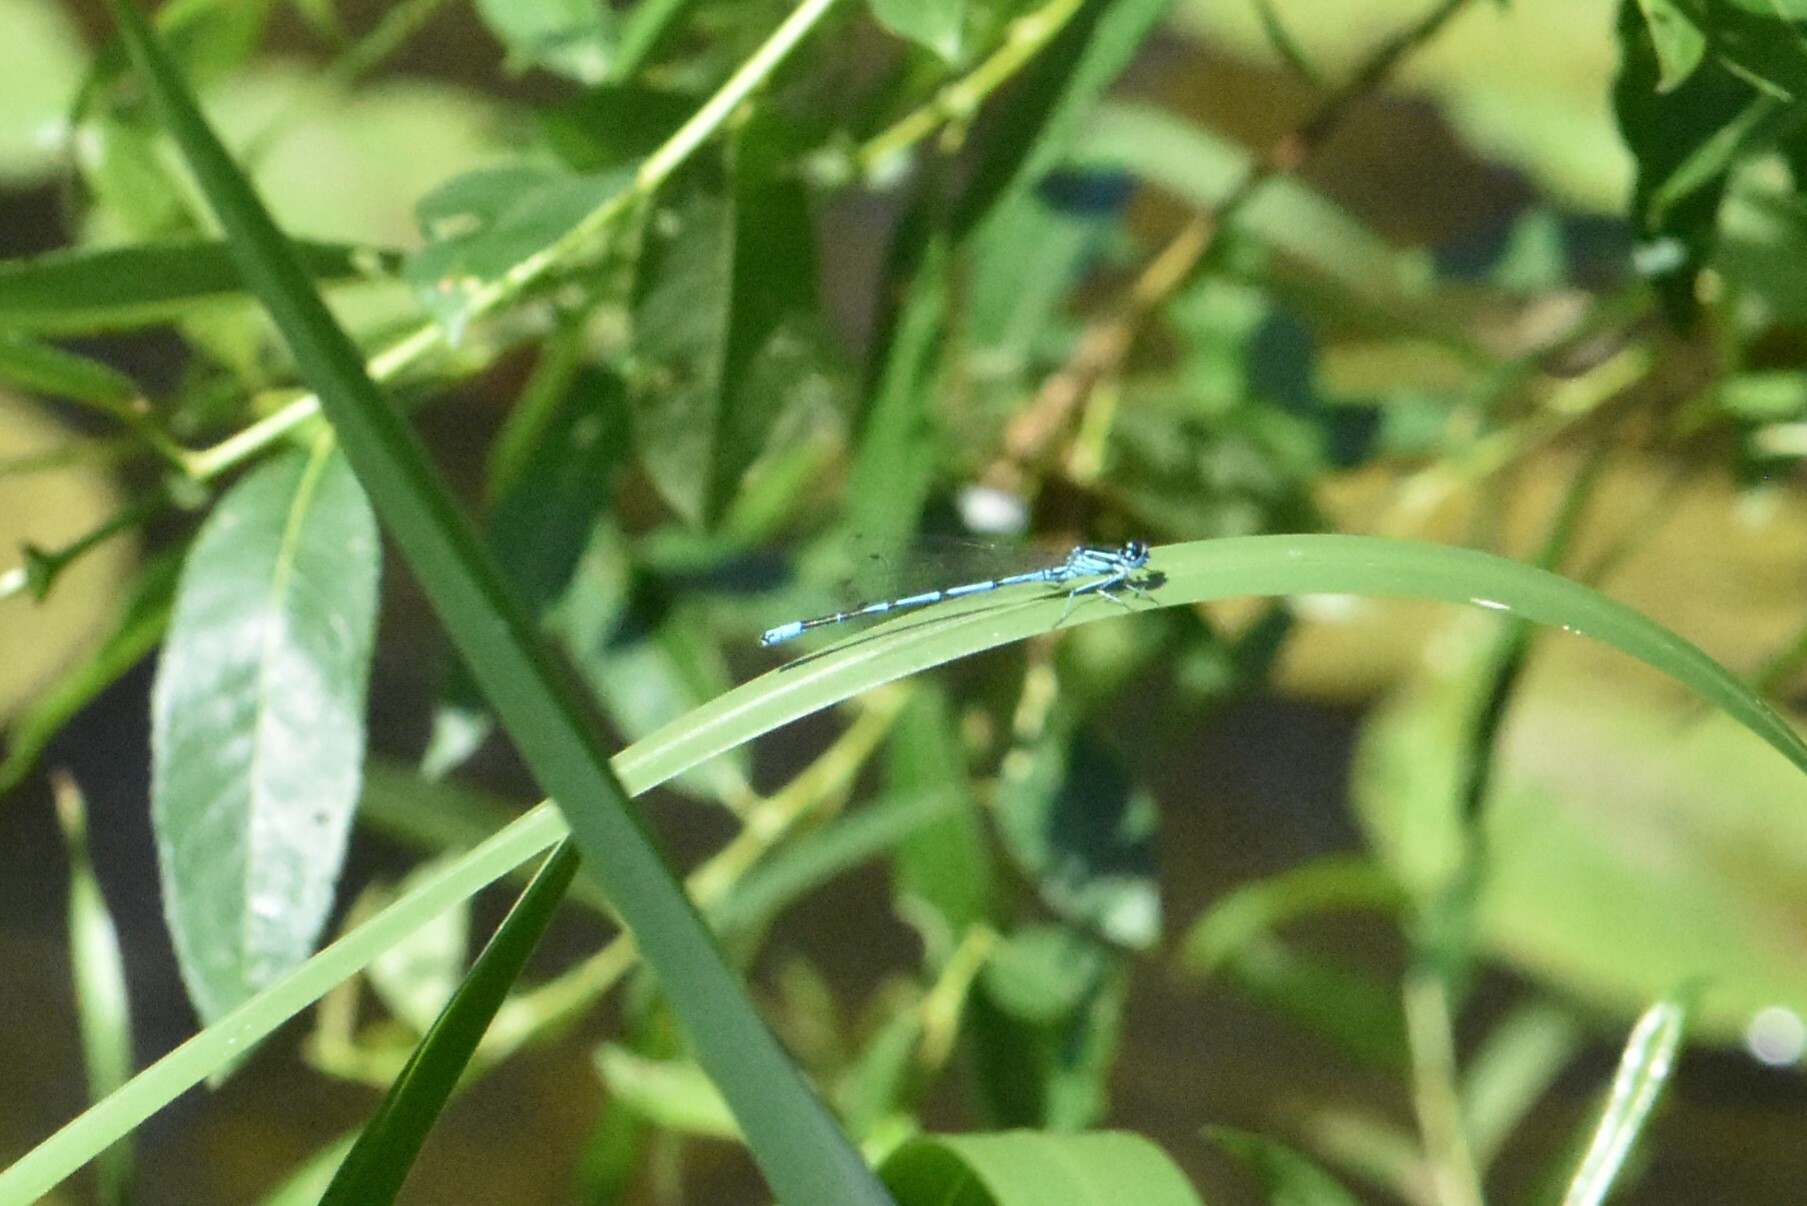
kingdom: Animalia
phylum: Arthropoda
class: Insecta
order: Odonata
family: Coenagrionidae
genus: Coenagrion
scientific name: Coenagrion puella
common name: Azure damselfly
